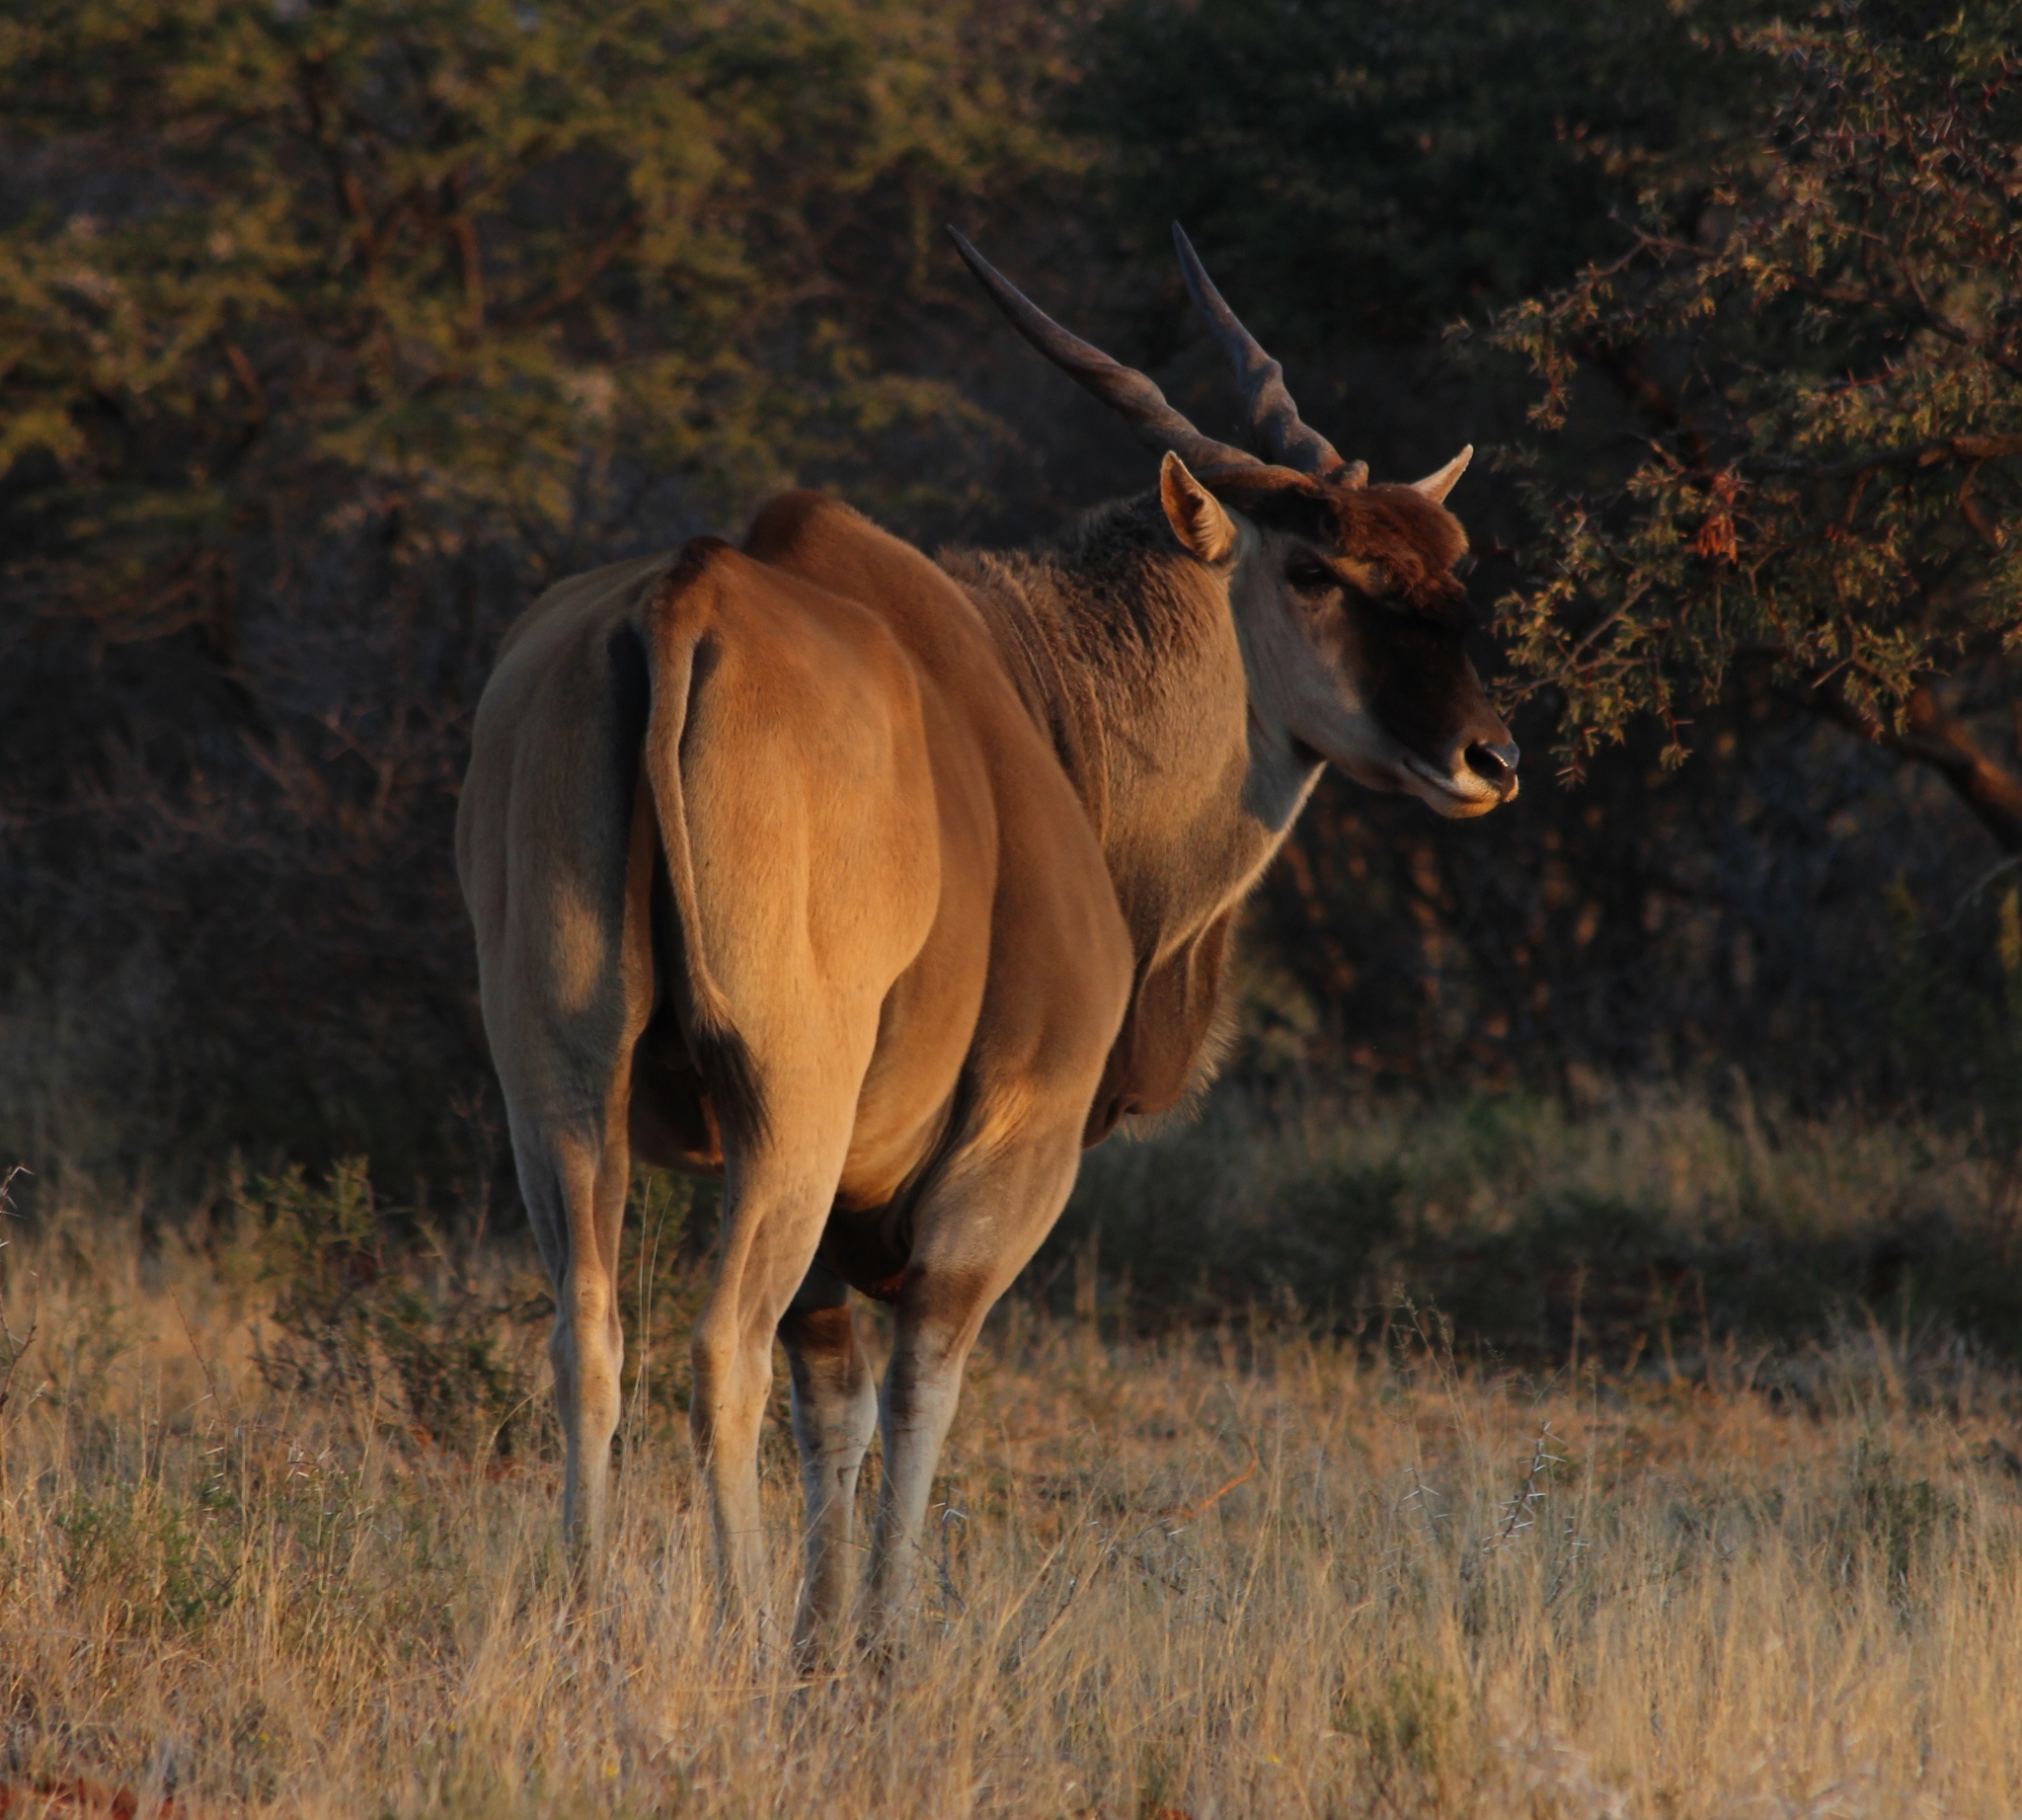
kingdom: Animalia
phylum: Chordata
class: Mammalia
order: Artiodactyla
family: Bovidae
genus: Taurotragus
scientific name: Taurotragus oryx
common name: Common eland
